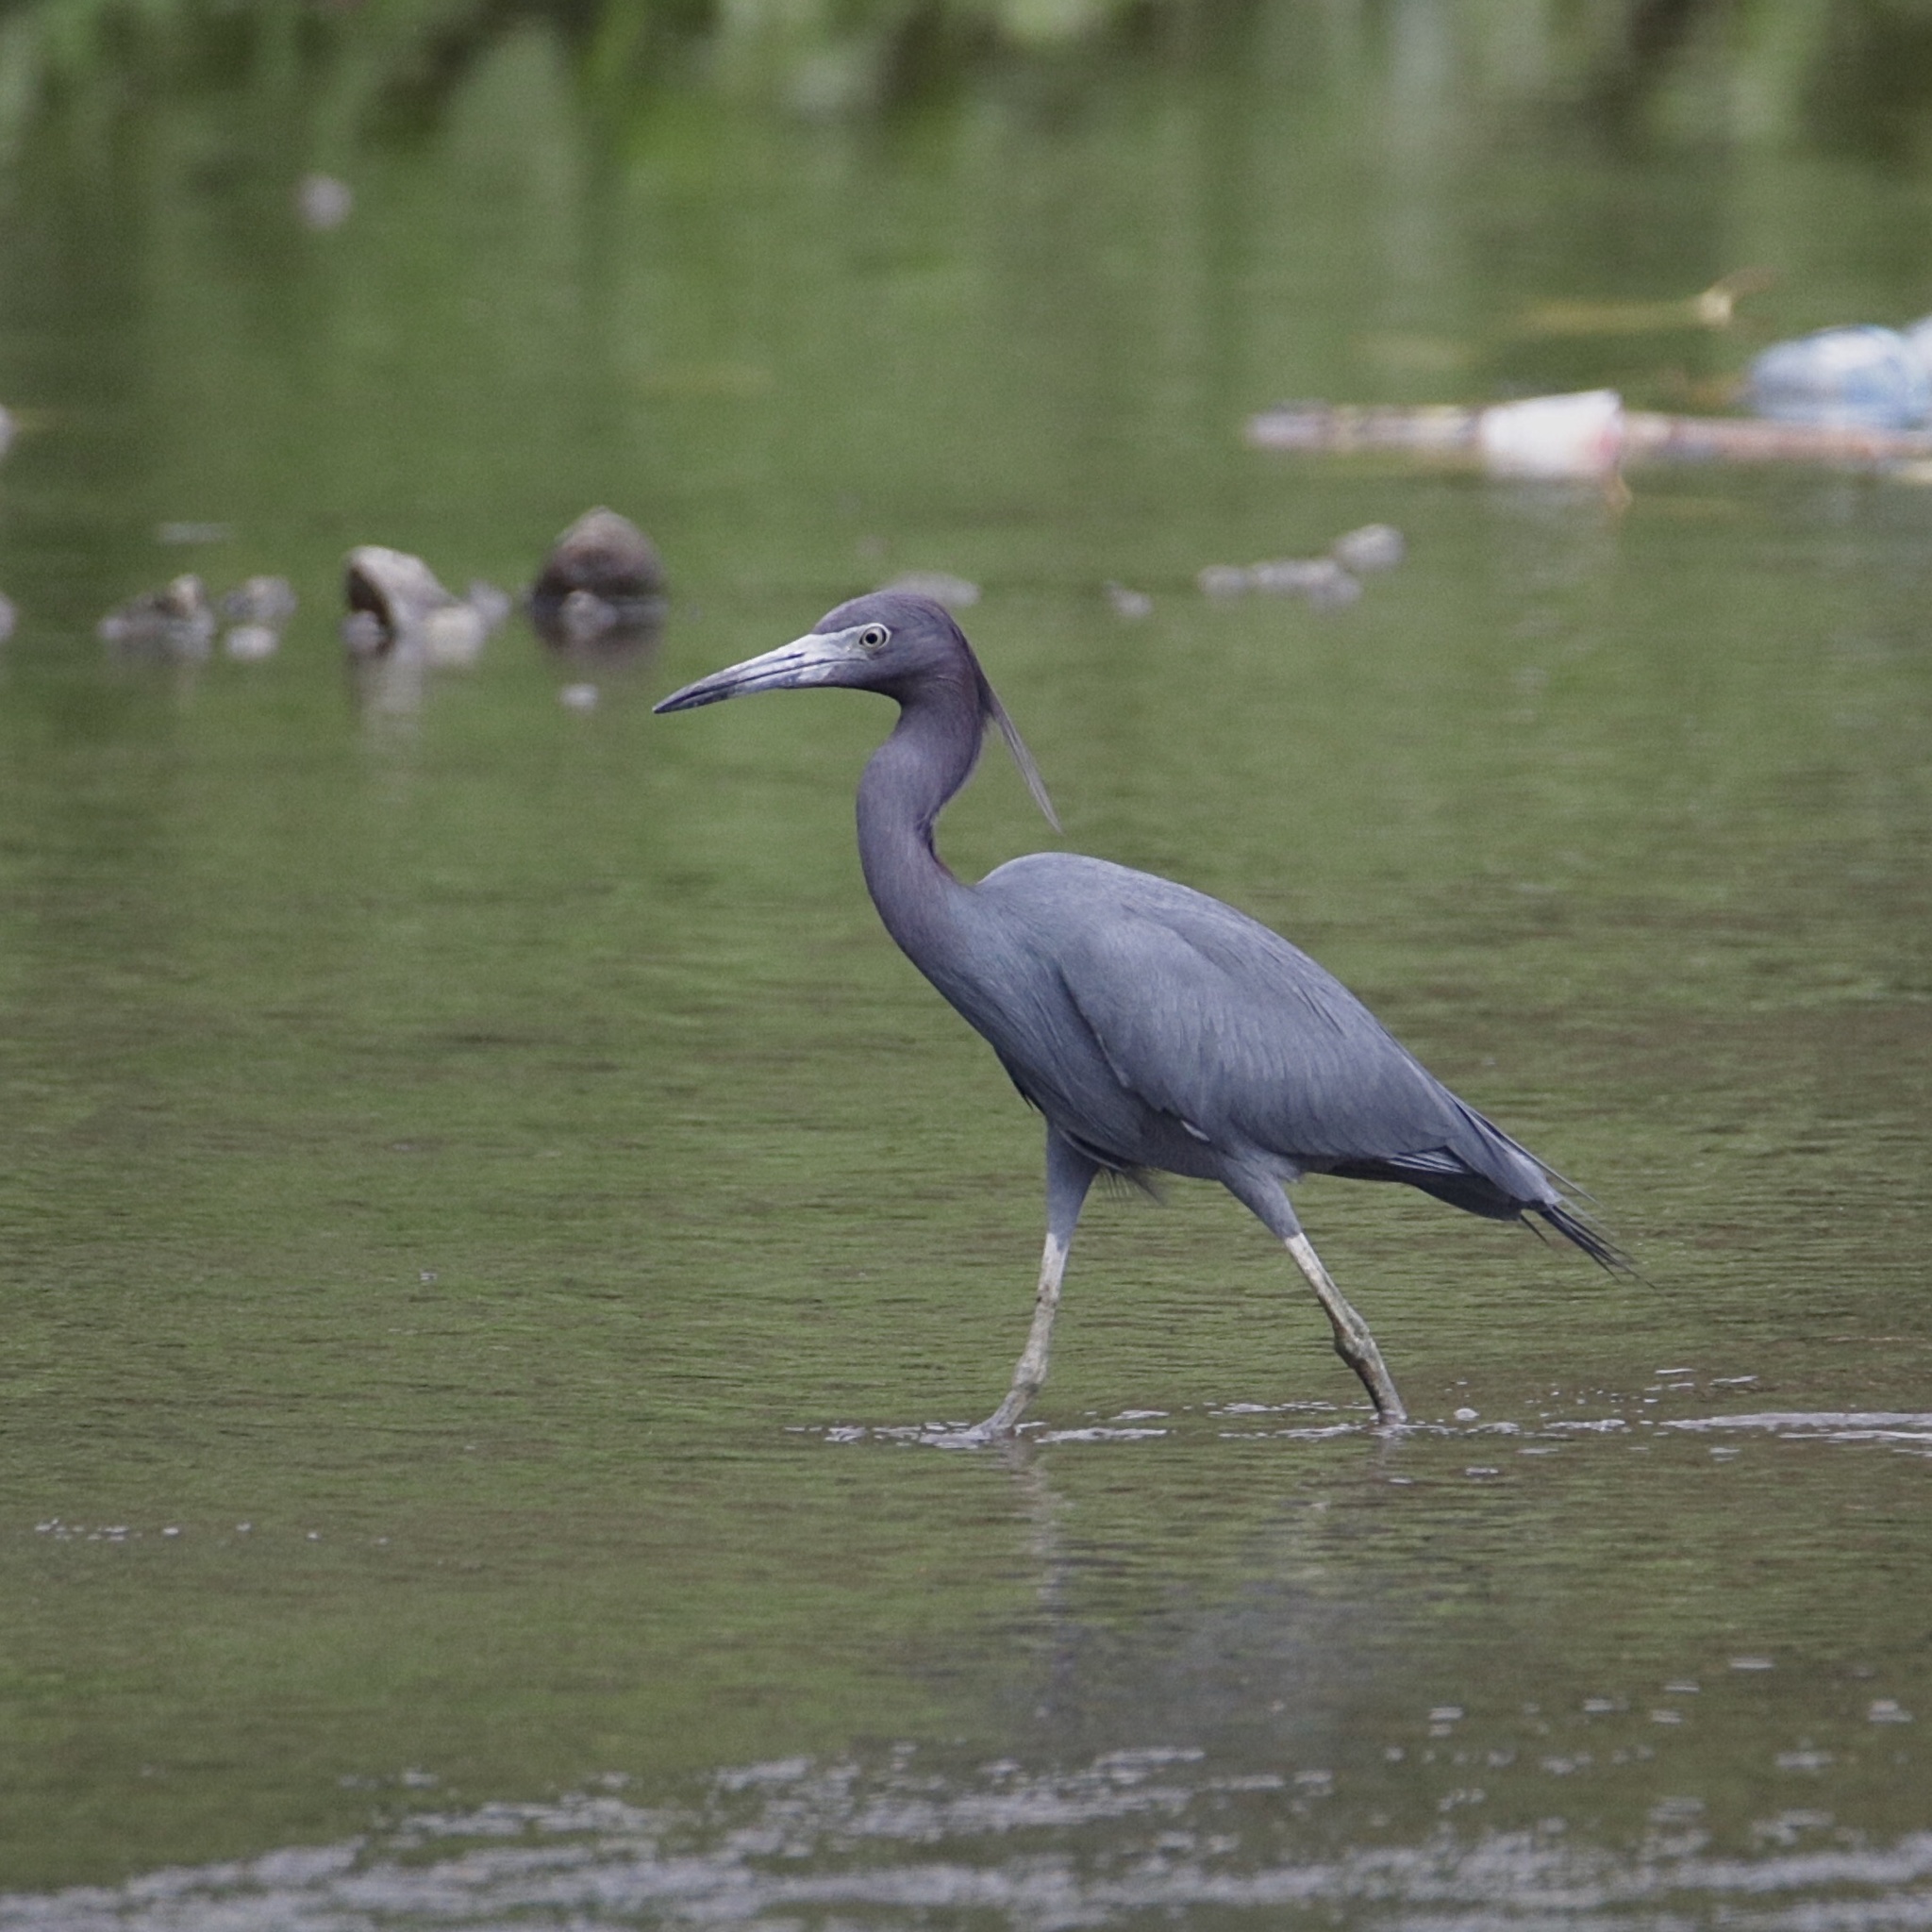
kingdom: Animalia
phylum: Chordata
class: Aves
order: Pelecaniformes
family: Ardeidae
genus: Egretta
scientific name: Egretta caerulea
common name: Little blue heron
